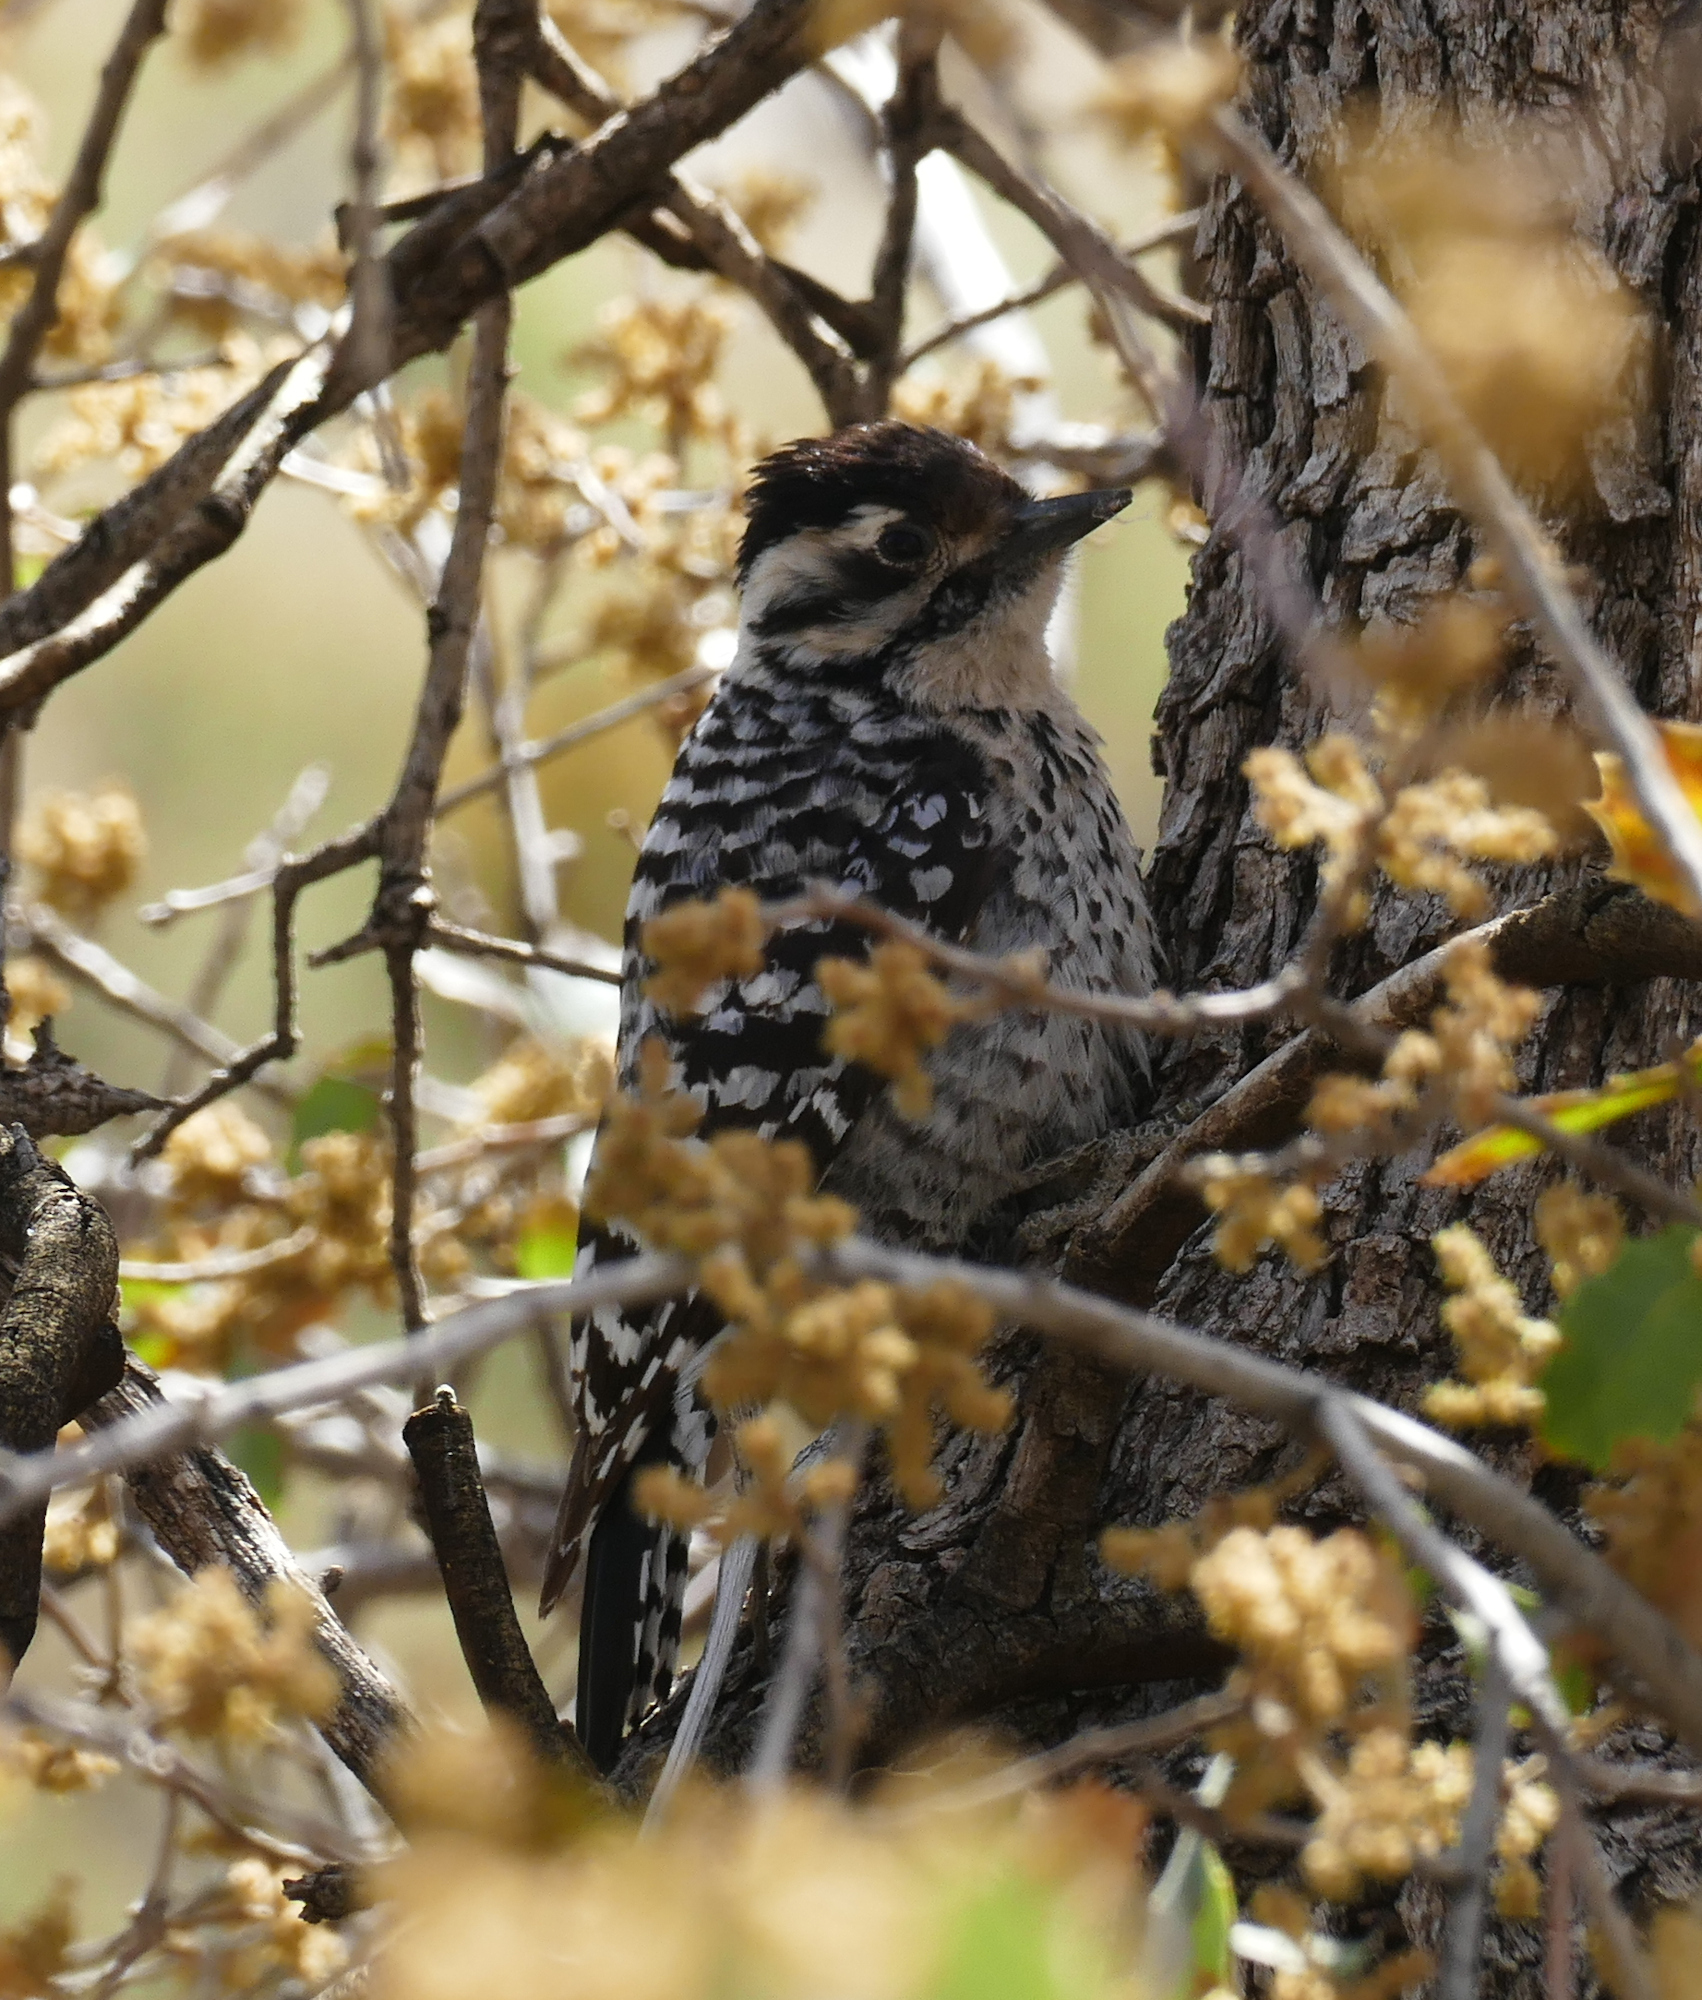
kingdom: Animalia
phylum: Chordata
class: Aves
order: Piciformes
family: Picidae
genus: Dryobates
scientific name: Dryobates scalaris
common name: Ladder-backed woodpecker
